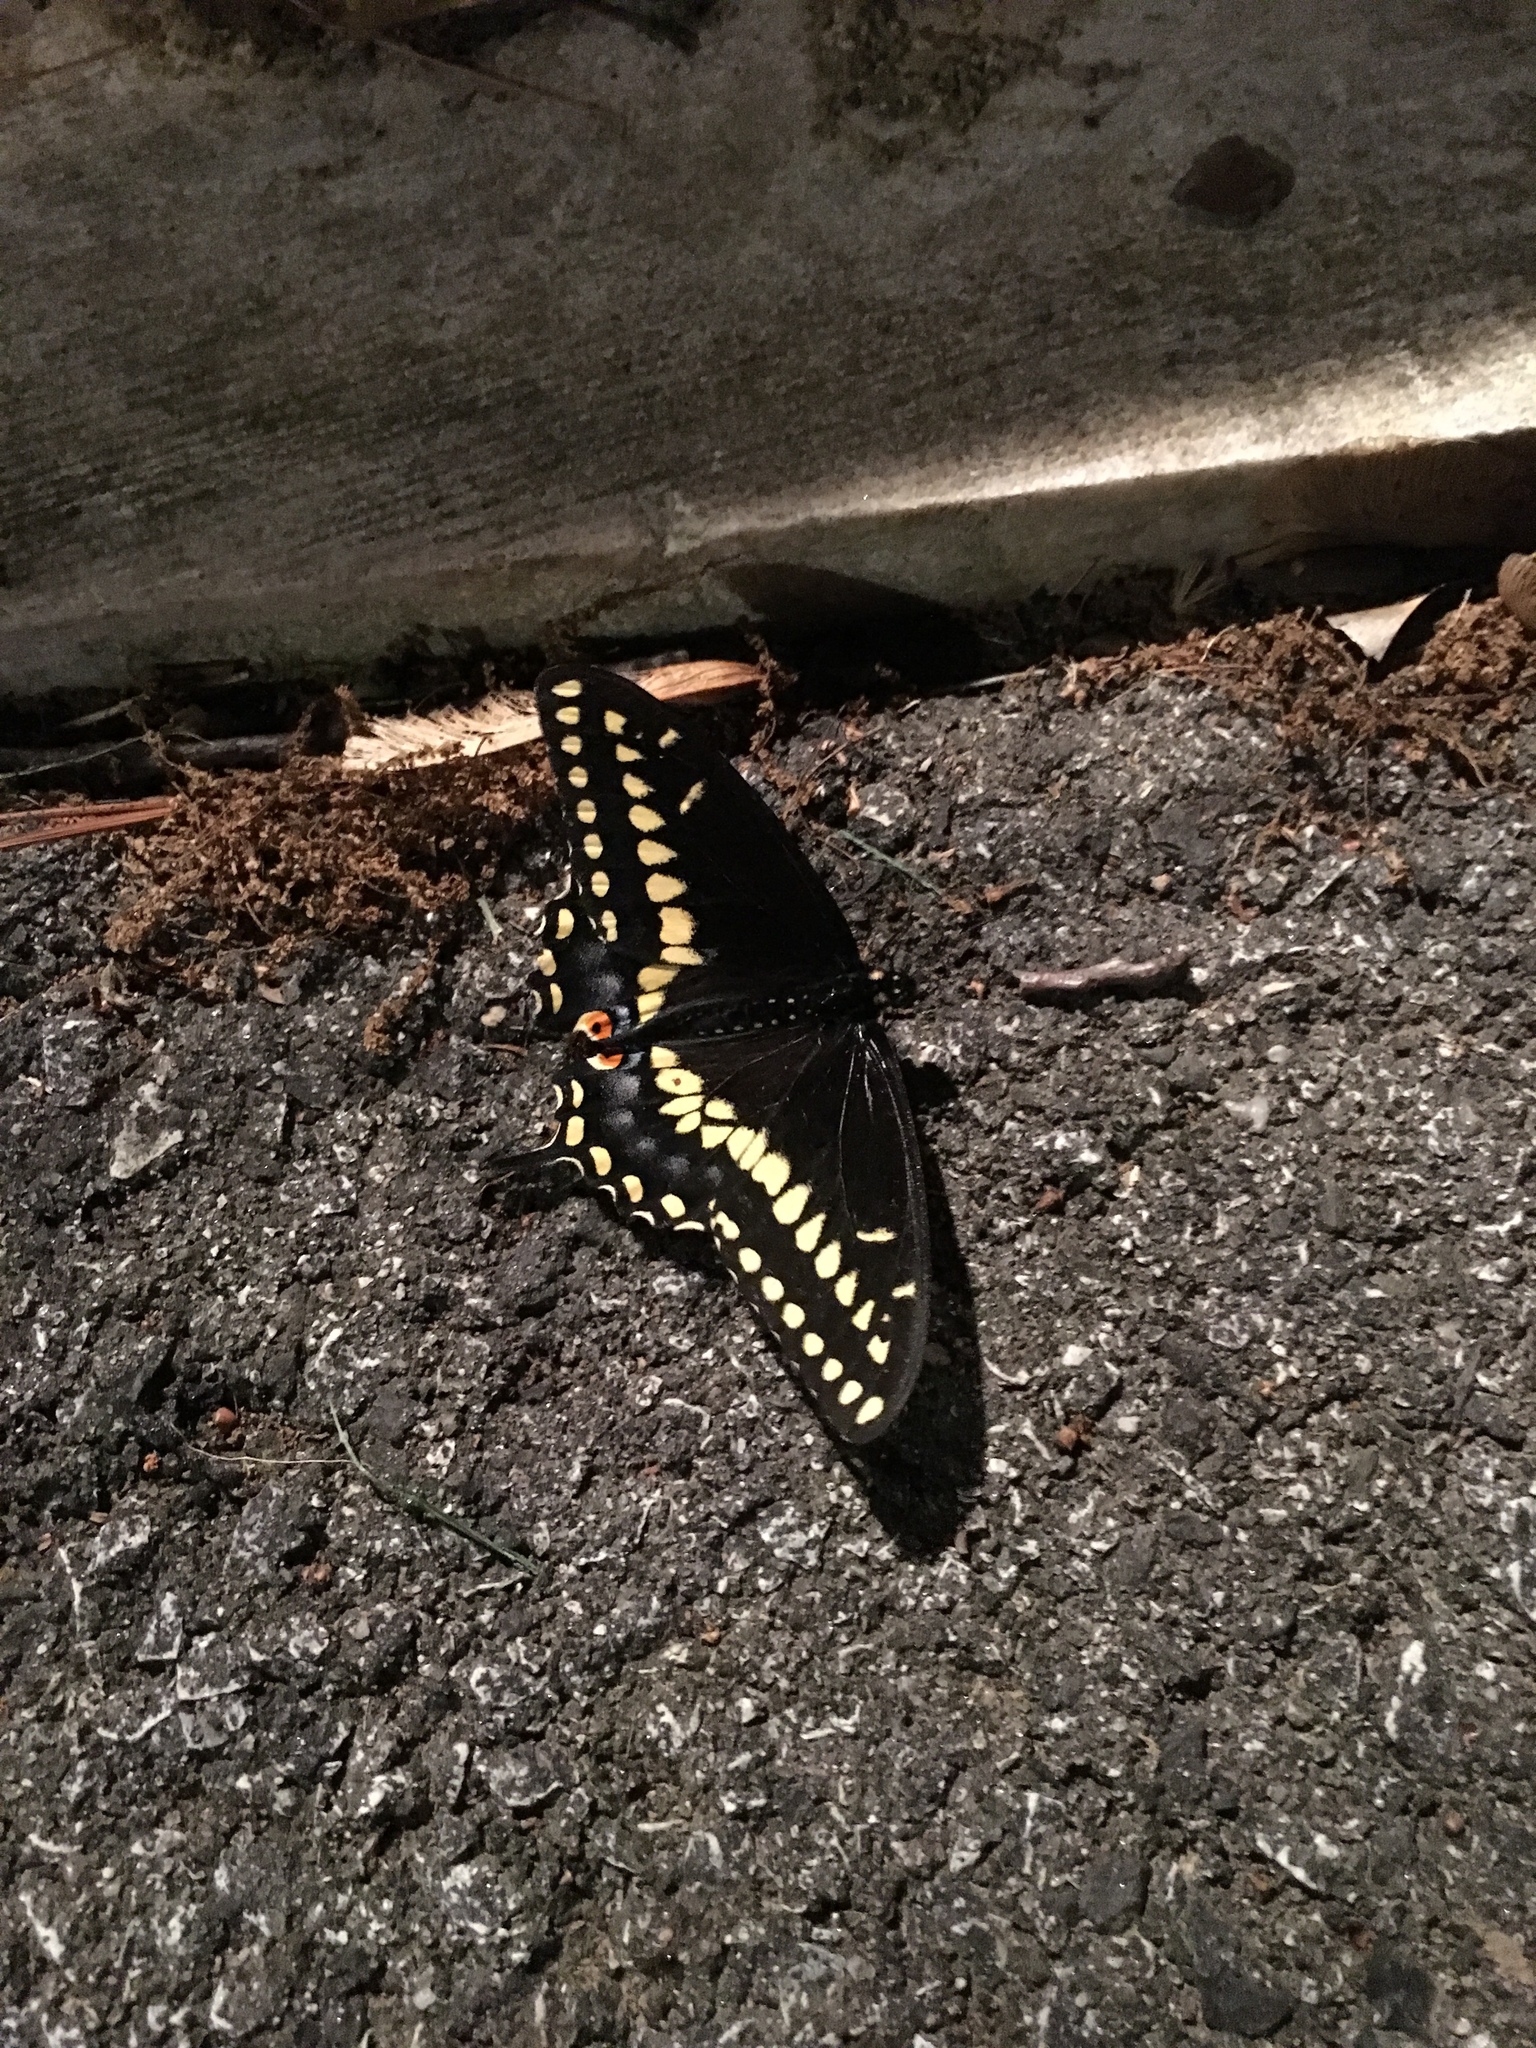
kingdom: Animalia
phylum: Arthropoda
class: Insecta
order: Lepidoptera
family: Papilionidae
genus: Papilio
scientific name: Papilio polyxenes
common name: Black swallowtail
